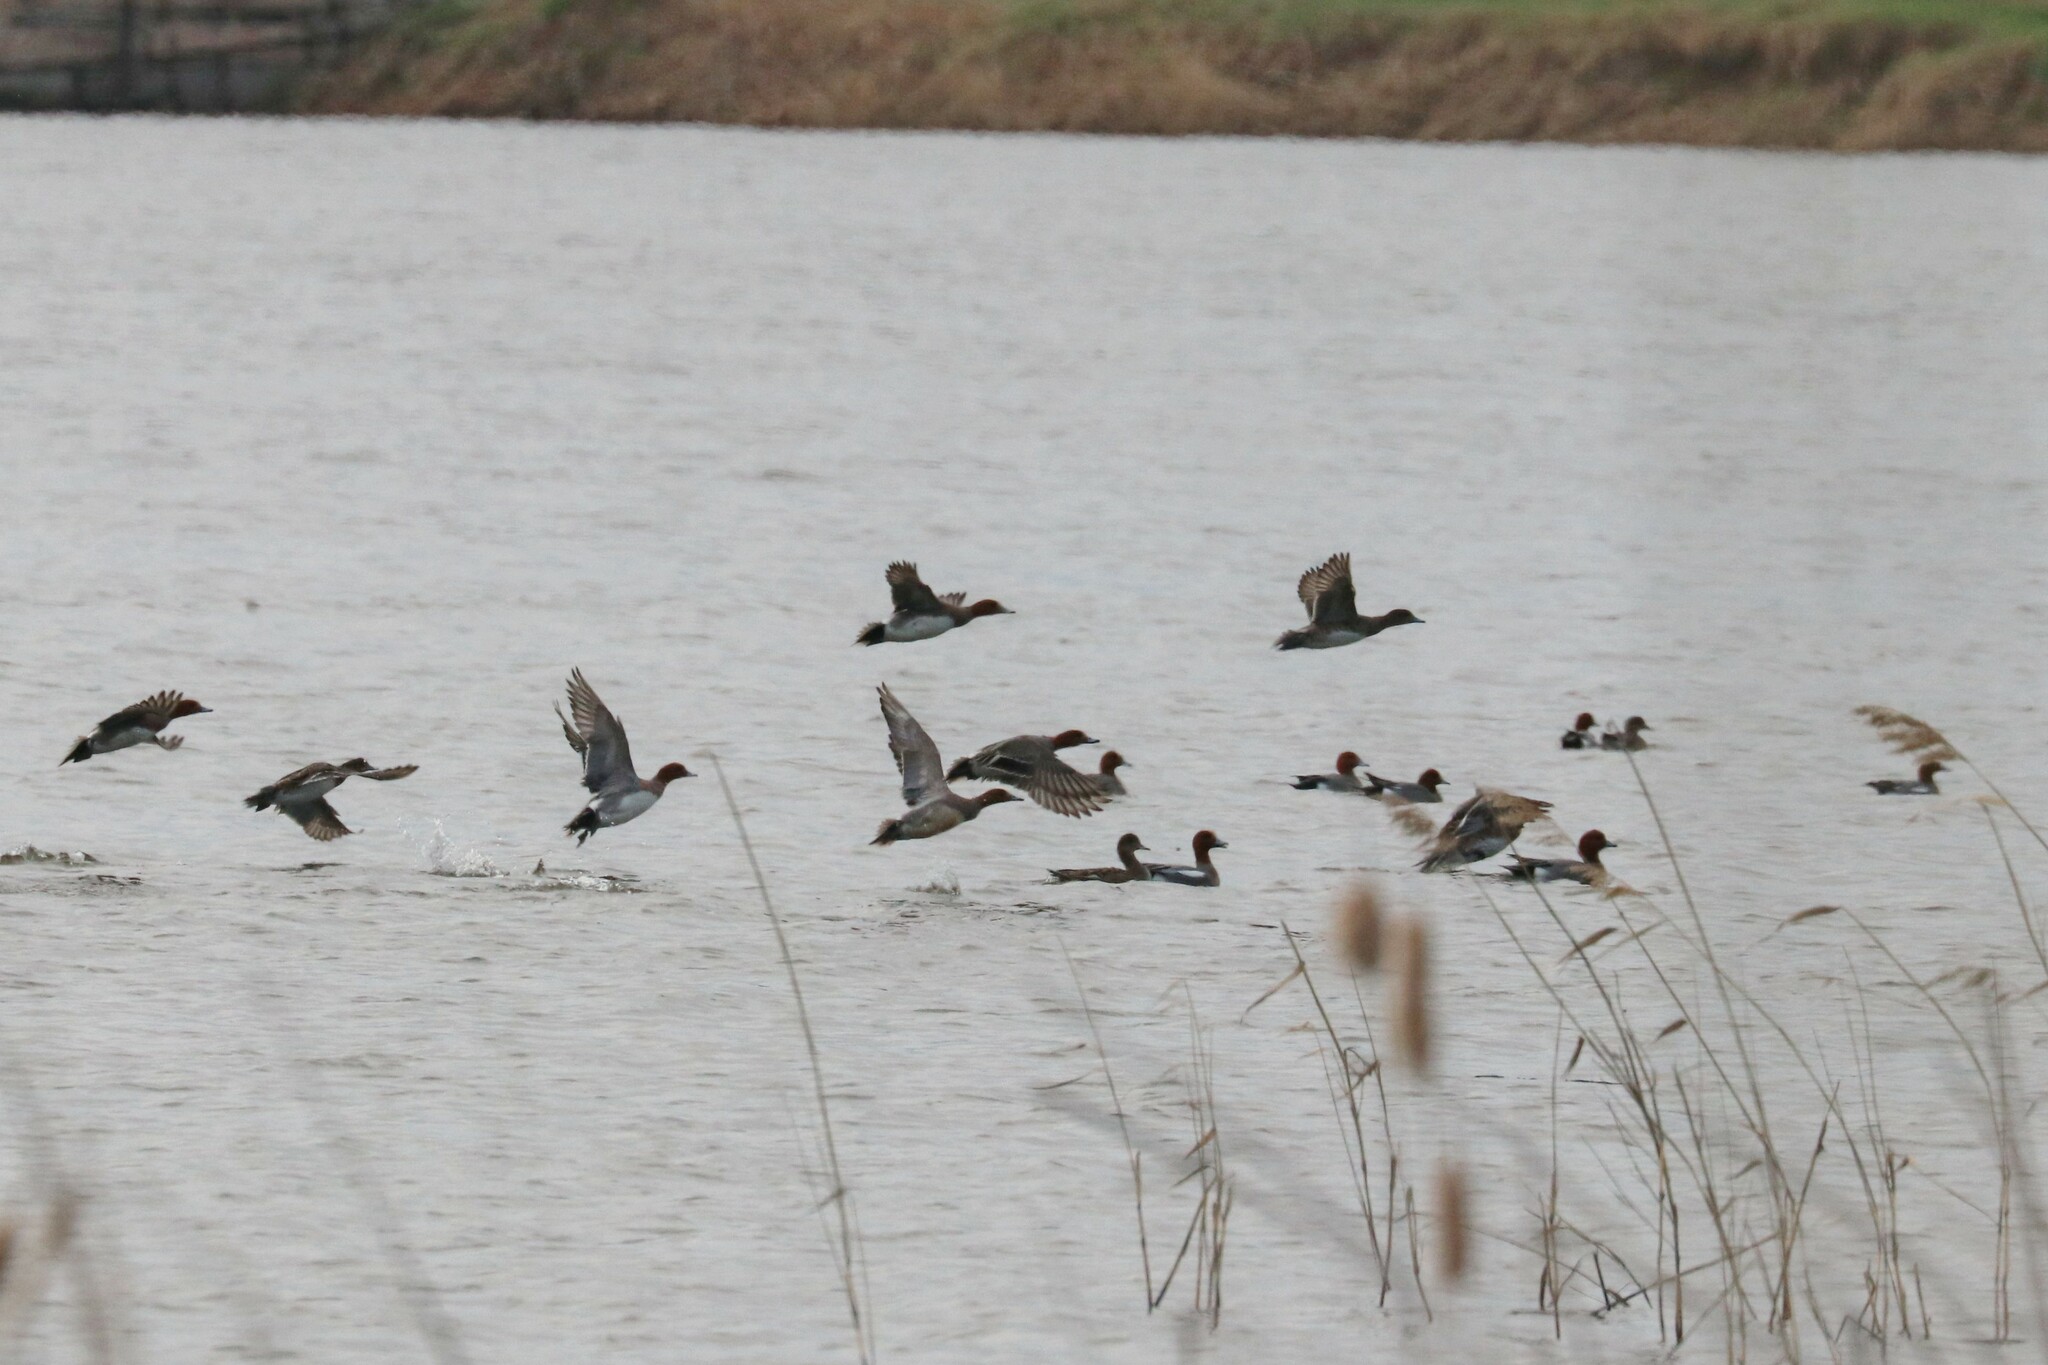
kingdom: Animalia
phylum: Chordata
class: Aves
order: Anseriformes
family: Anatidae
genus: Mareca
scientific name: Mareca penelope
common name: Eurasian wigeon
